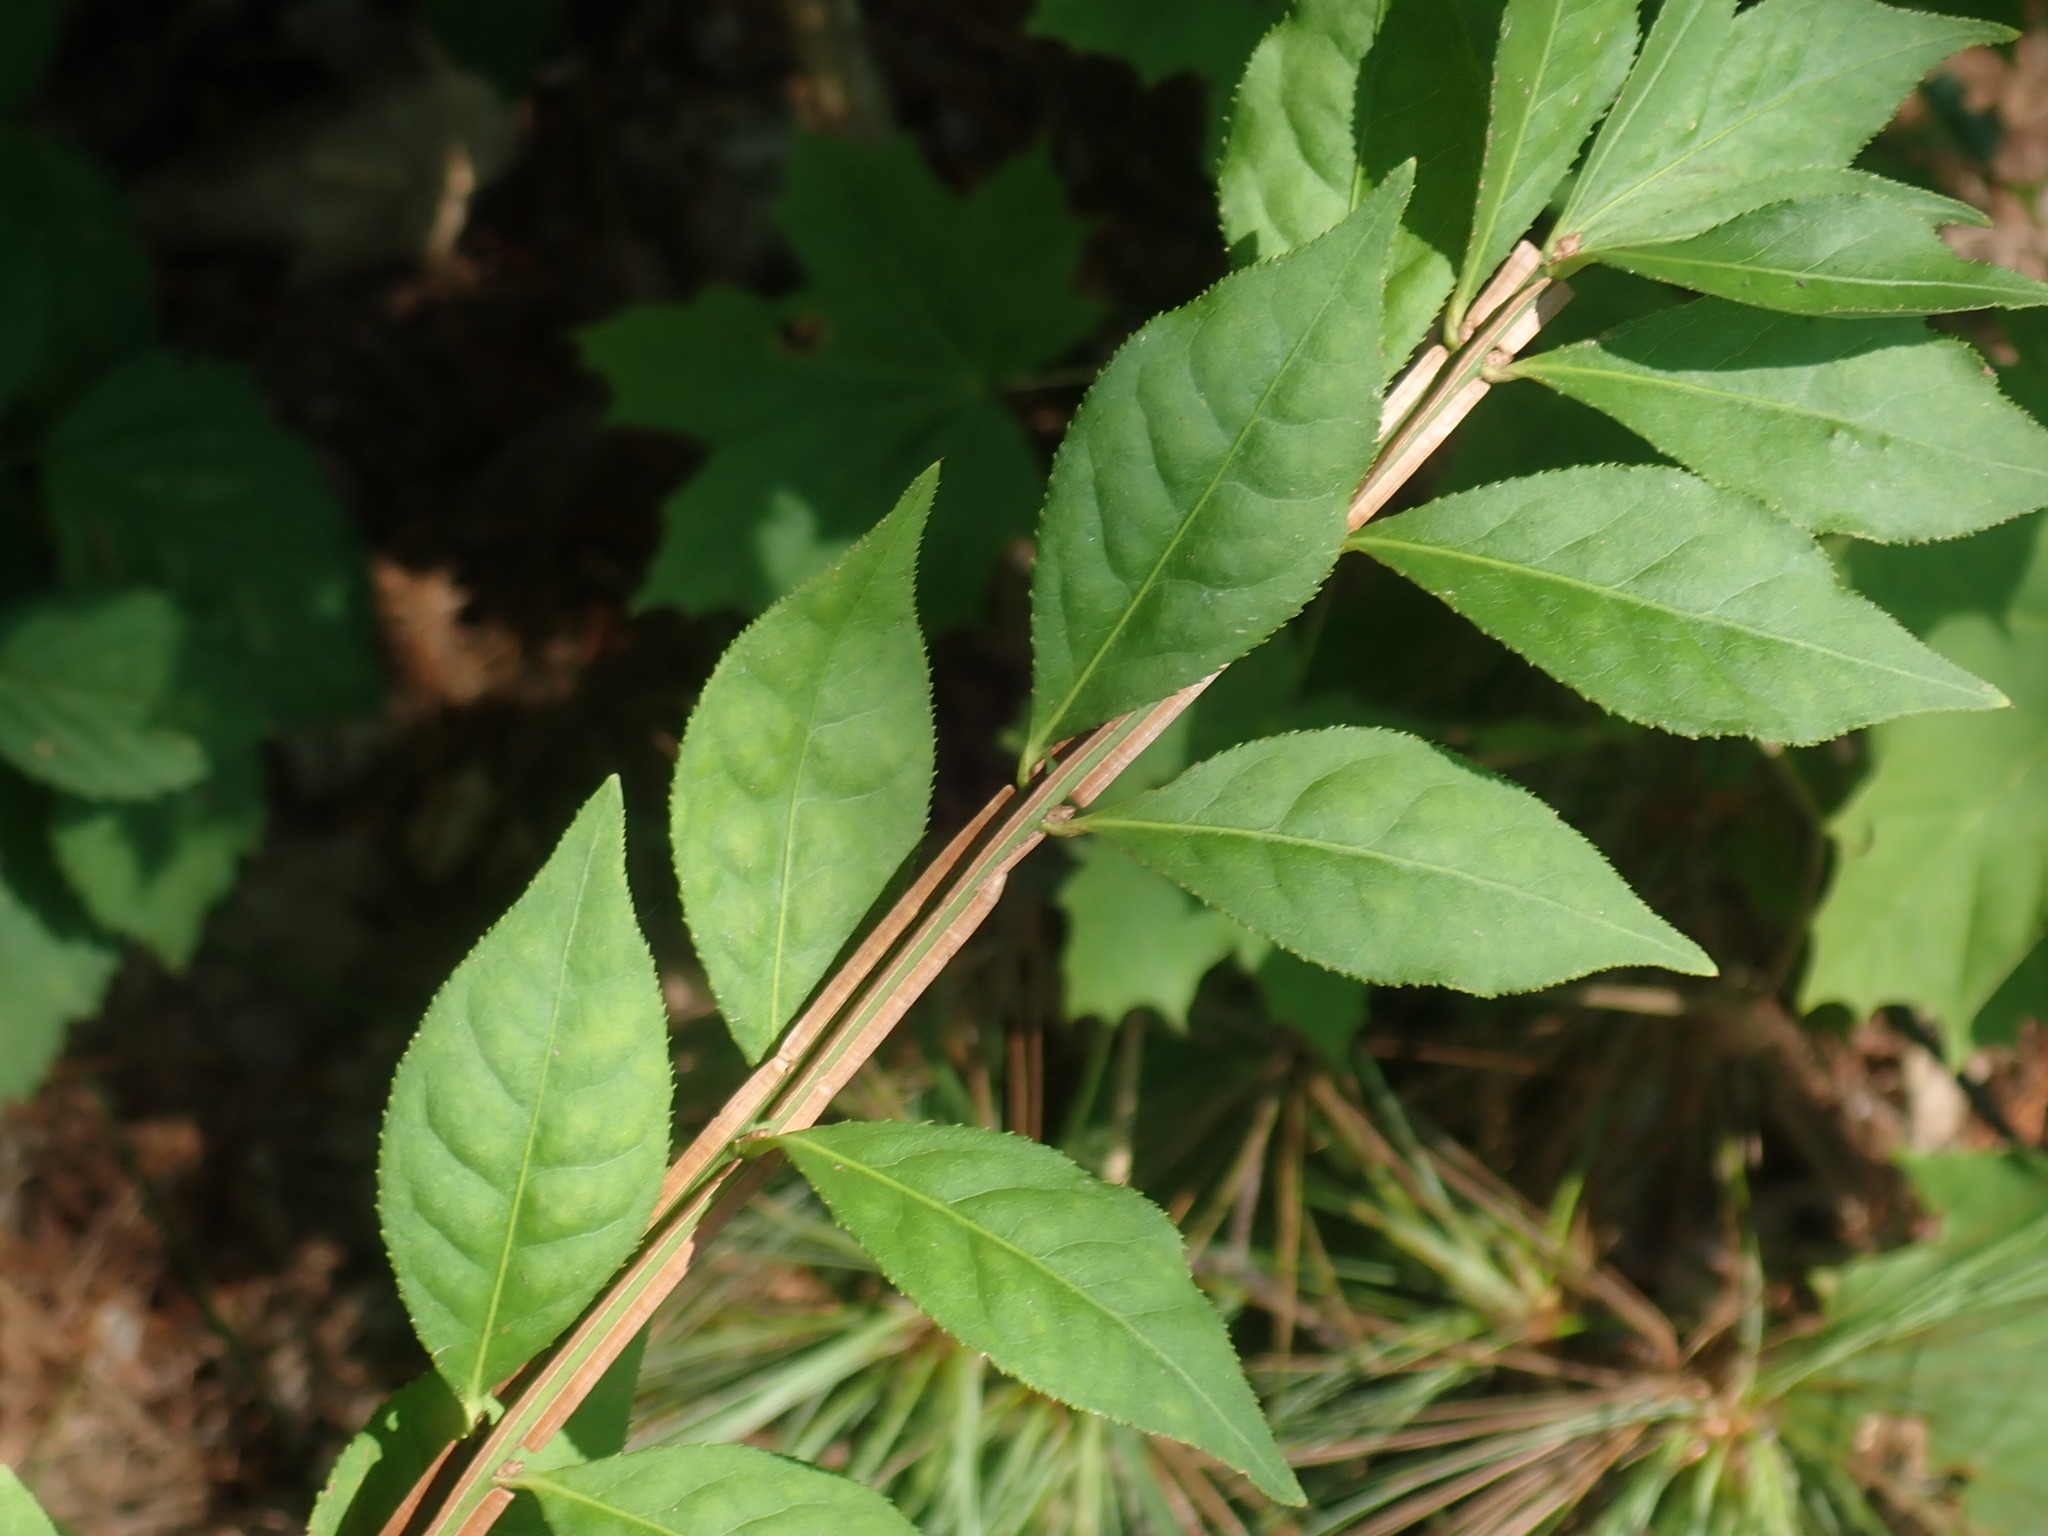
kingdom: Plantae
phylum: Tracheophyta
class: Magnoliopsida
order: Celastrales
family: Celastraceae
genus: Euonymus
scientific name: Euonymus alatus
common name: Winged euonymus
